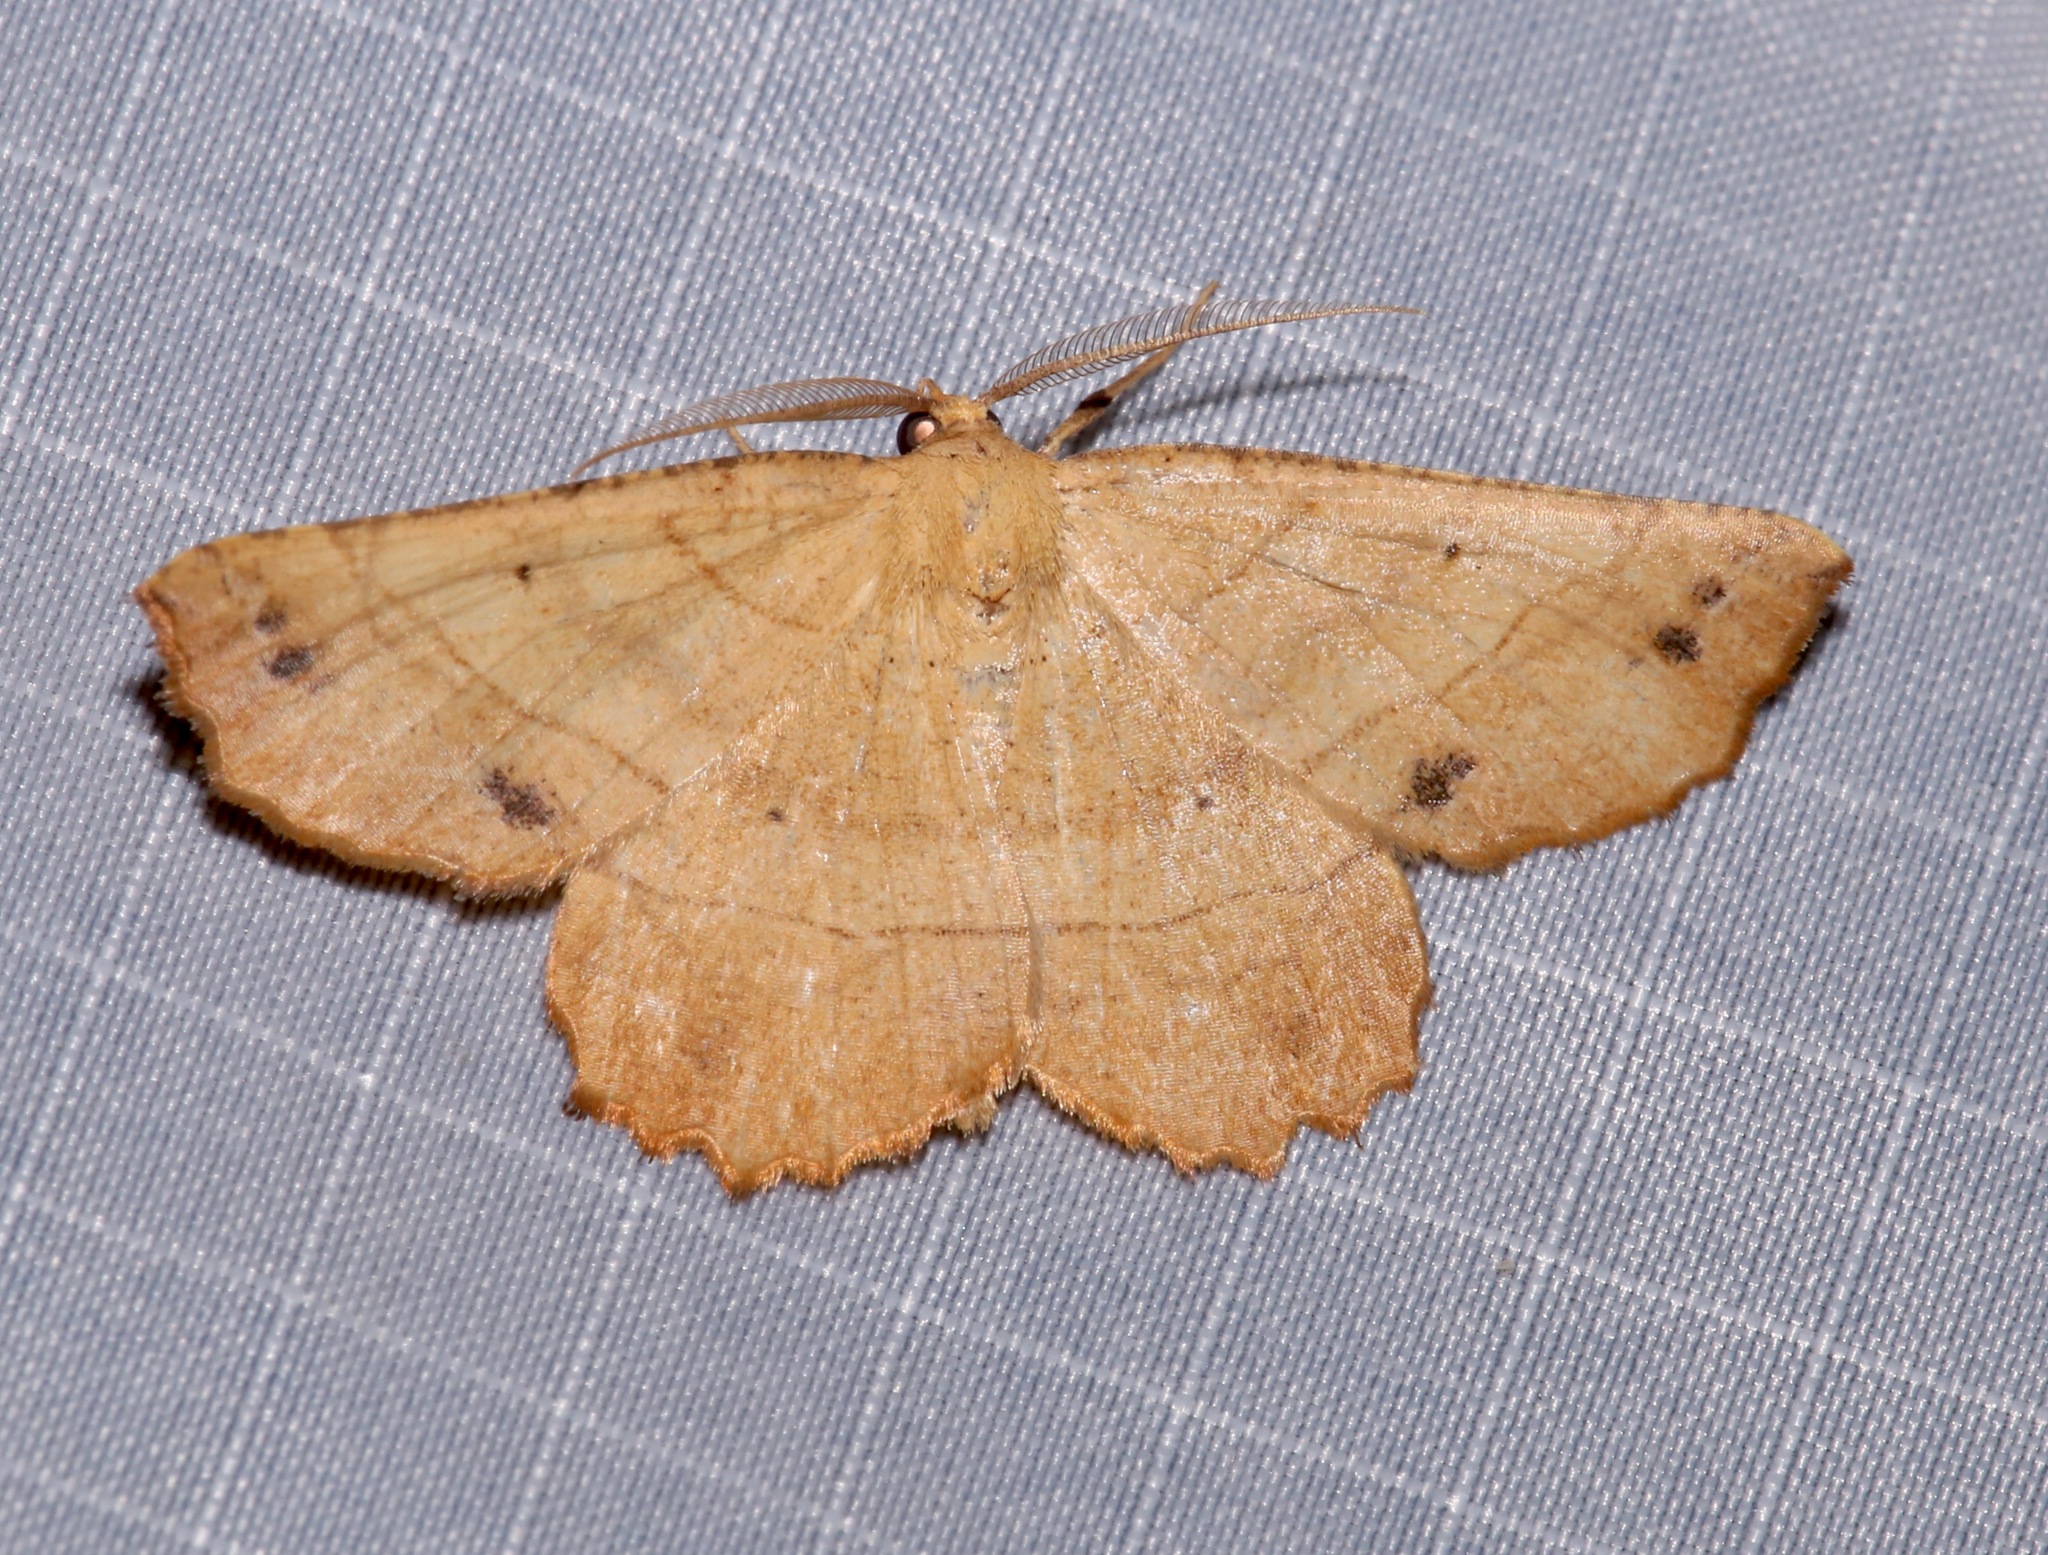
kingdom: Animalia
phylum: Arthropoda
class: Insecta
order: Lepidoptera
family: Geometridae
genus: Euchlaena
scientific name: Euchlaena johnsonaria
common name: Johnson's euchlaena
